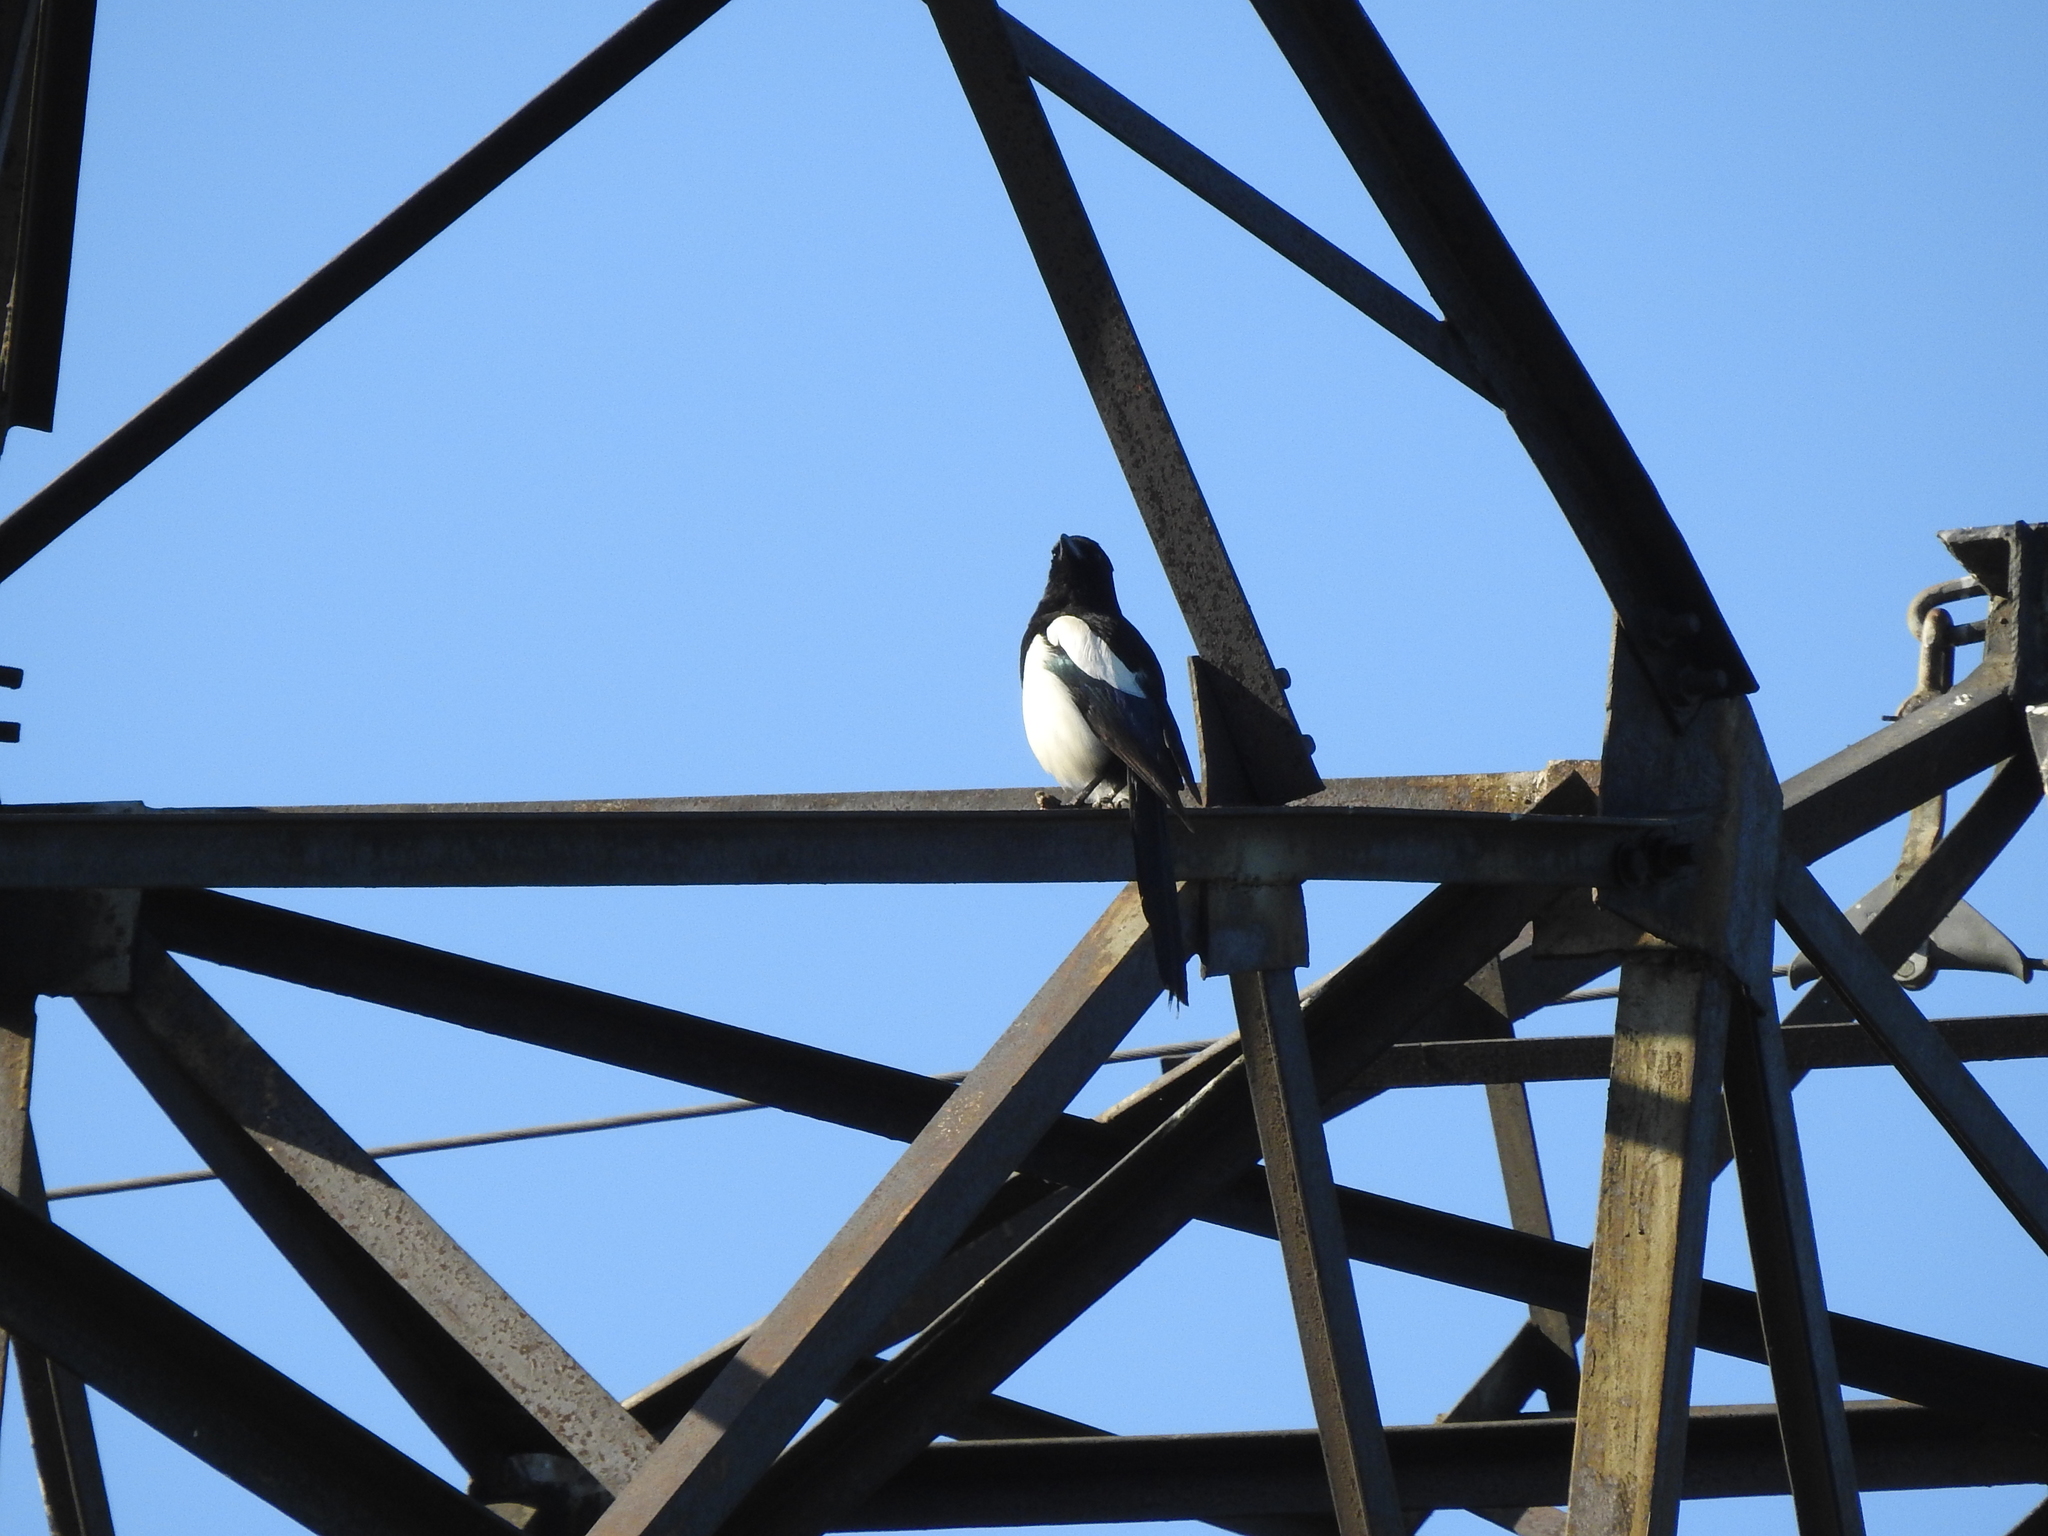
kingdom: Animalia
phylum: Chordata
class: Aves
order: Passeriformes
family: Corvidae
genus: Pica
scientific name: Pica pica
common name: Eurasian magpie
